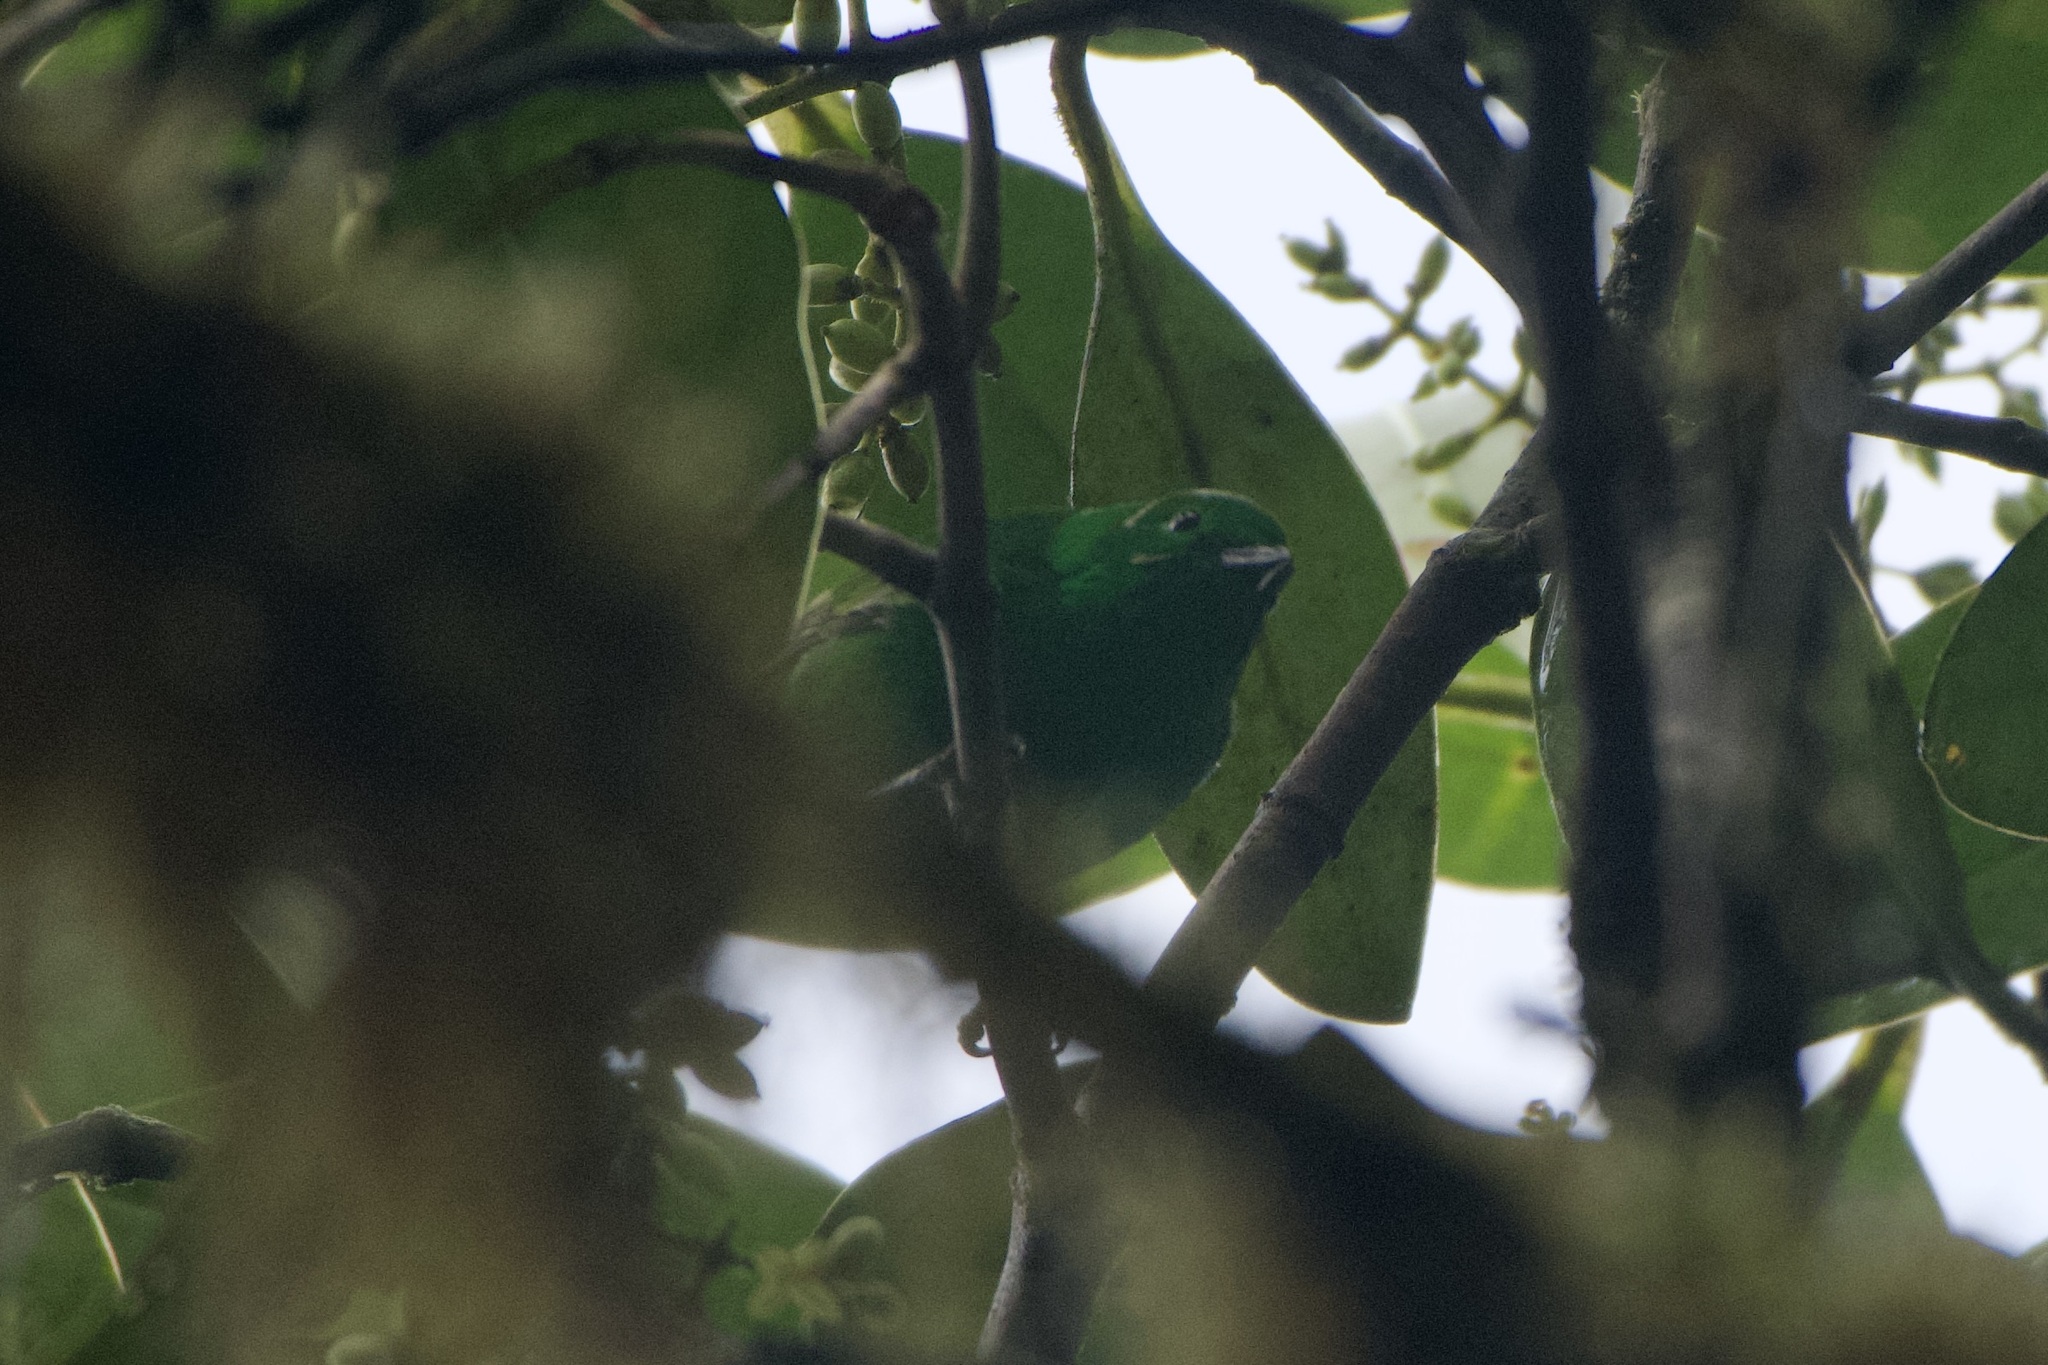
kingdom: Animalia
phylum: Chordata
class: Aves
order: Passeriformes
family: Thraupidae
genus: Chlorochrysa
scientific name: Chlorochrysa phoenicotis
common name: Glistening-green tanager
